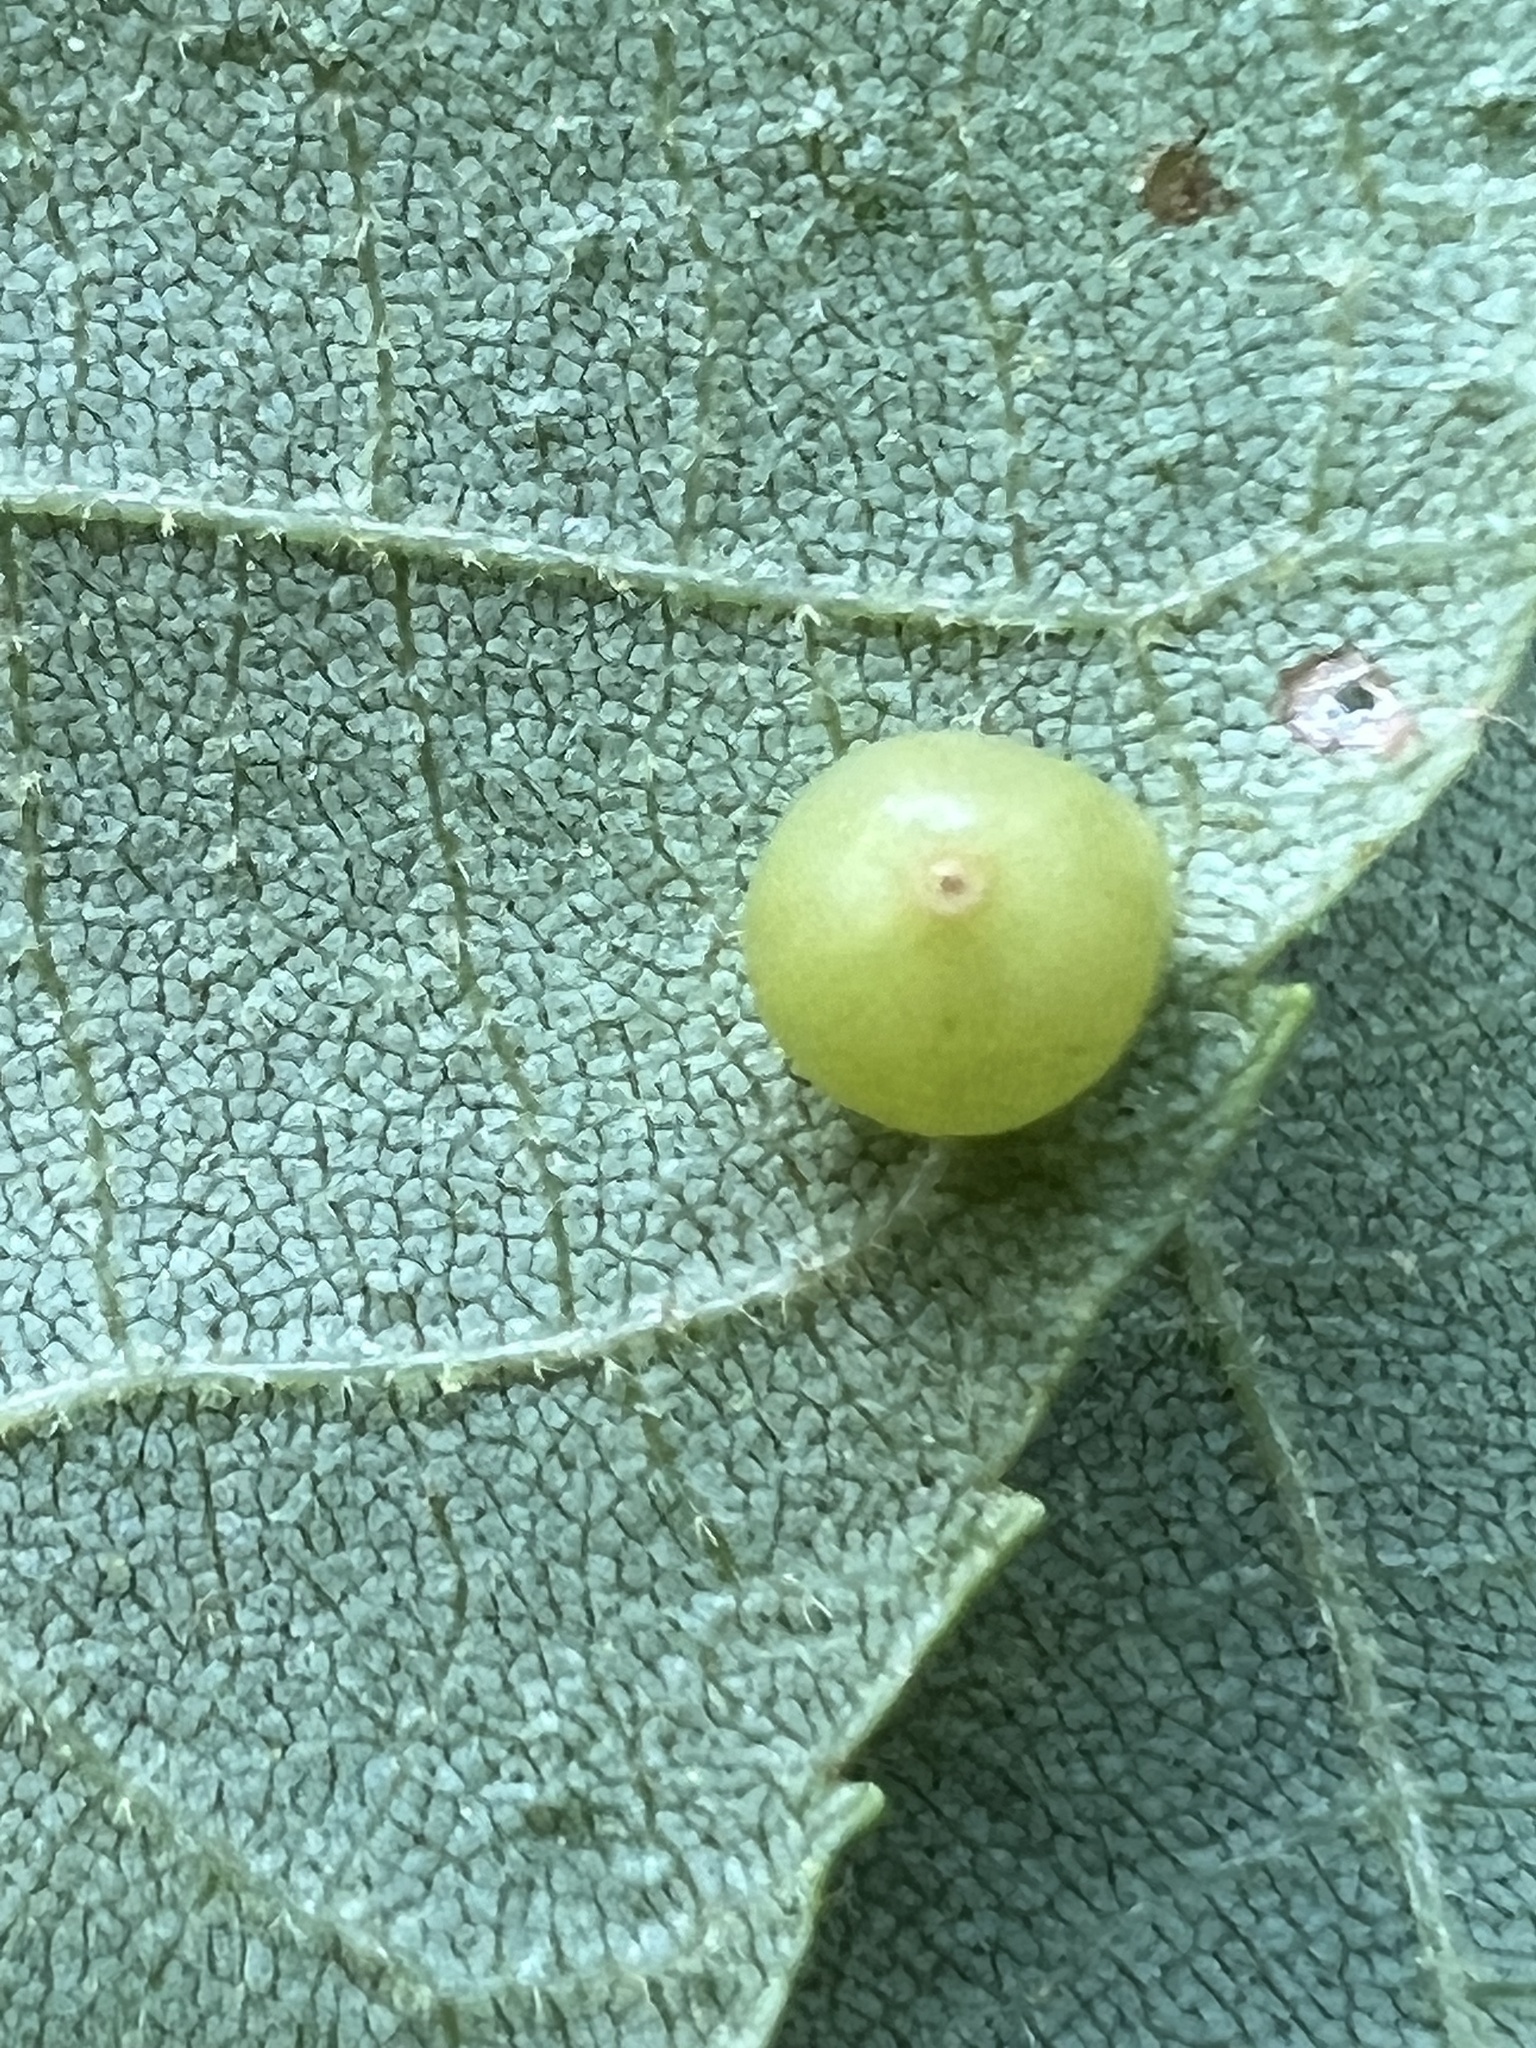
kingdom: Animalia
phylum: Arthropoda
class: Insecta
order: Diptera
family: Cecidomyiidae
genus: Caryomyia
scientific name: Caryomyia caryae
